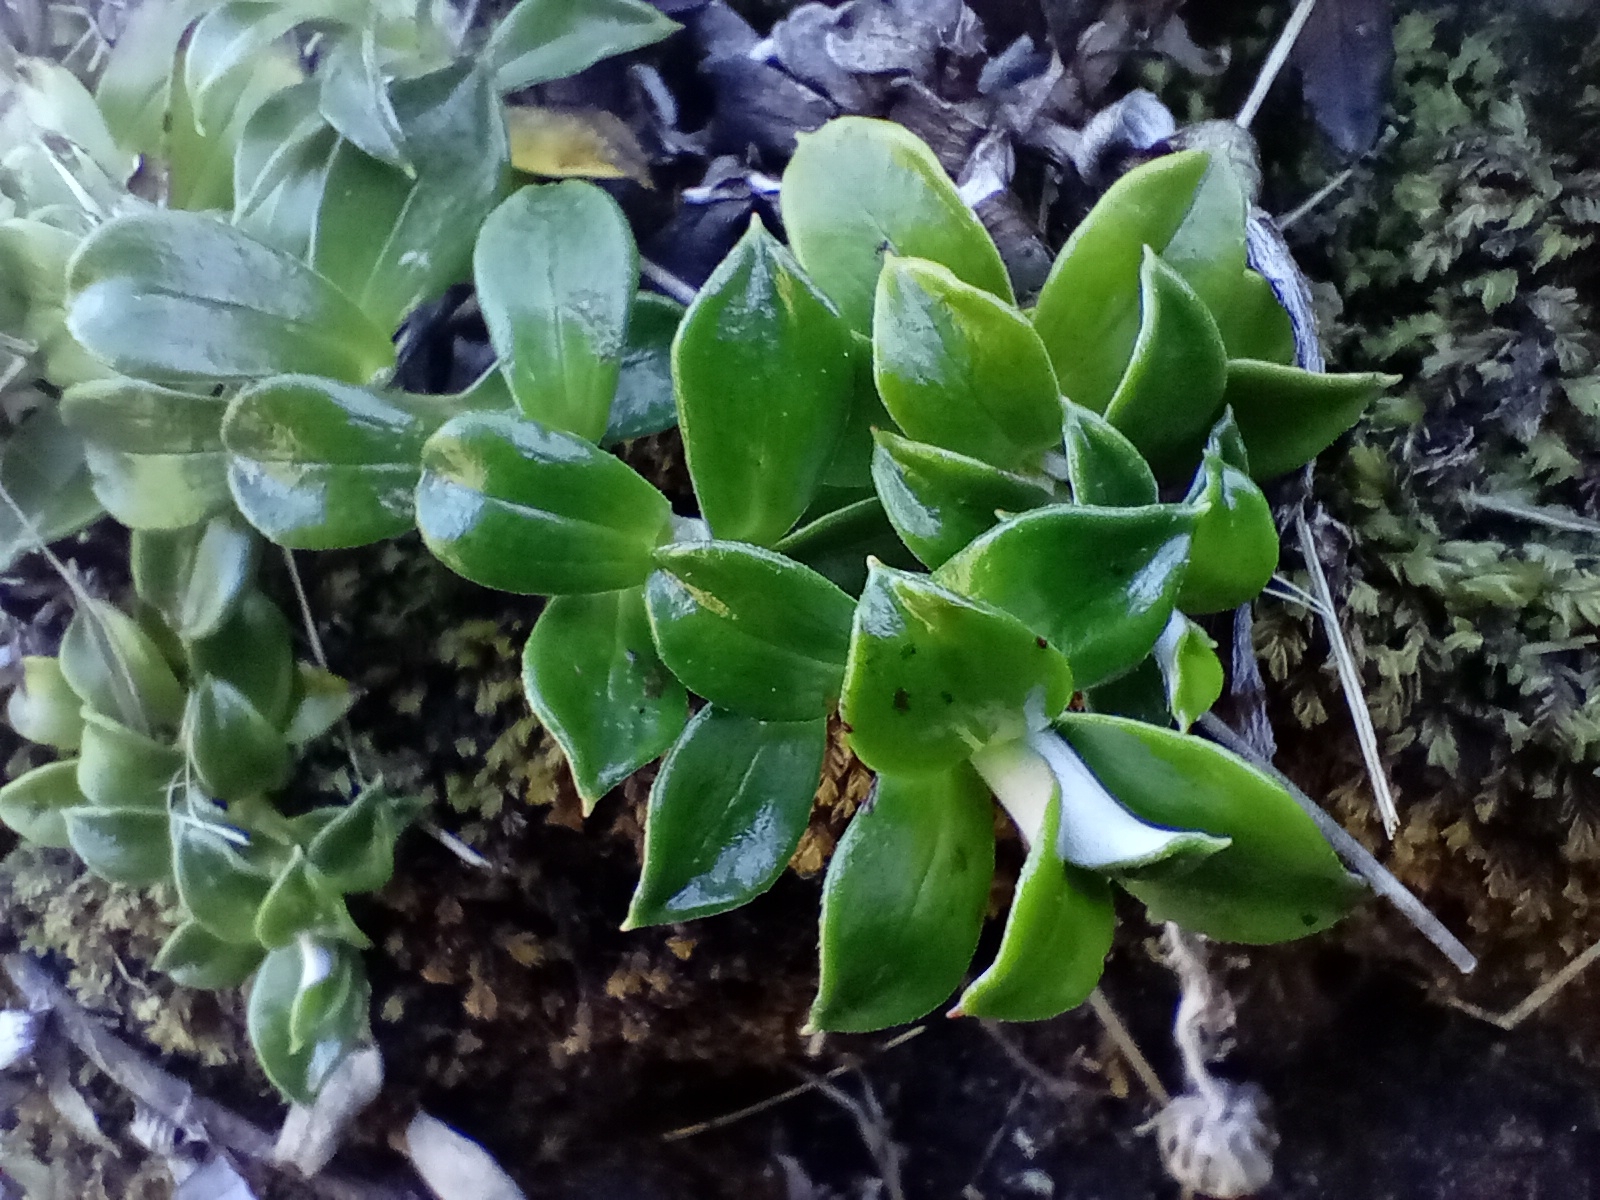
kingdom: Plantae
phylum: Tracheophyta
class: Magnoliopsida
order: Asterales
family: Asteraceae
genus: Anaphalioides
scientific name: Anaphalioides hookeri
